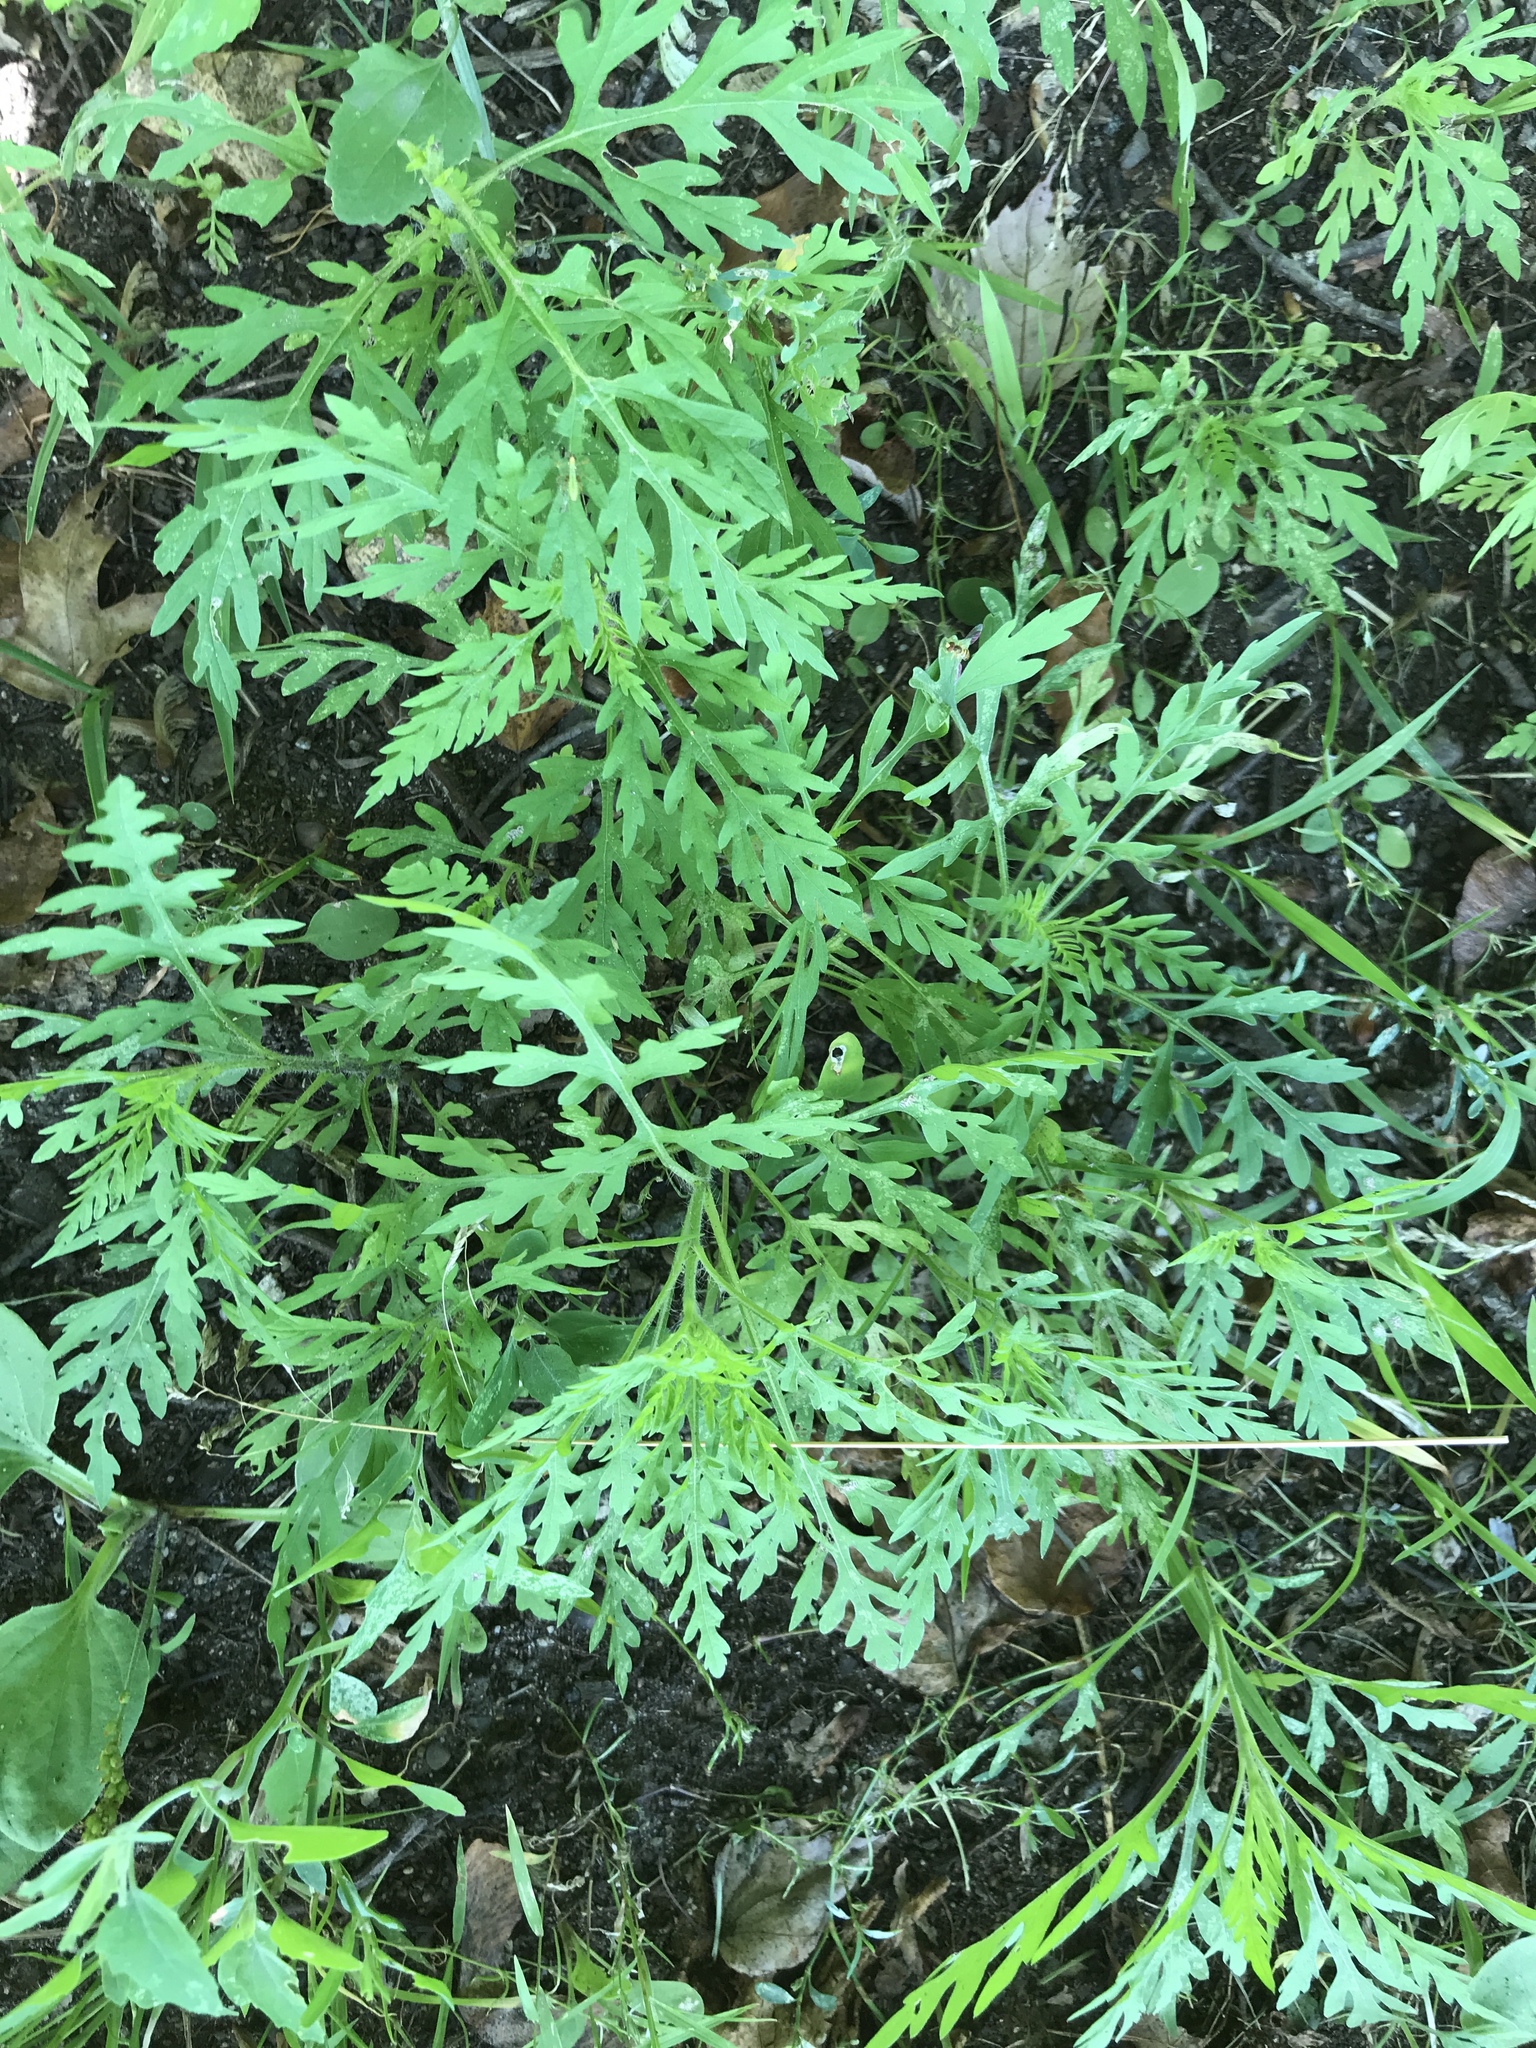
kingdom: Plantae
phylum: Tracheophyta
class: Magnoliopsida
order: Asterales
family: Asteraceae
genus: Ambrosia
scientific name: Ambrosia artemisiifolia
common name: Annual ragweed
